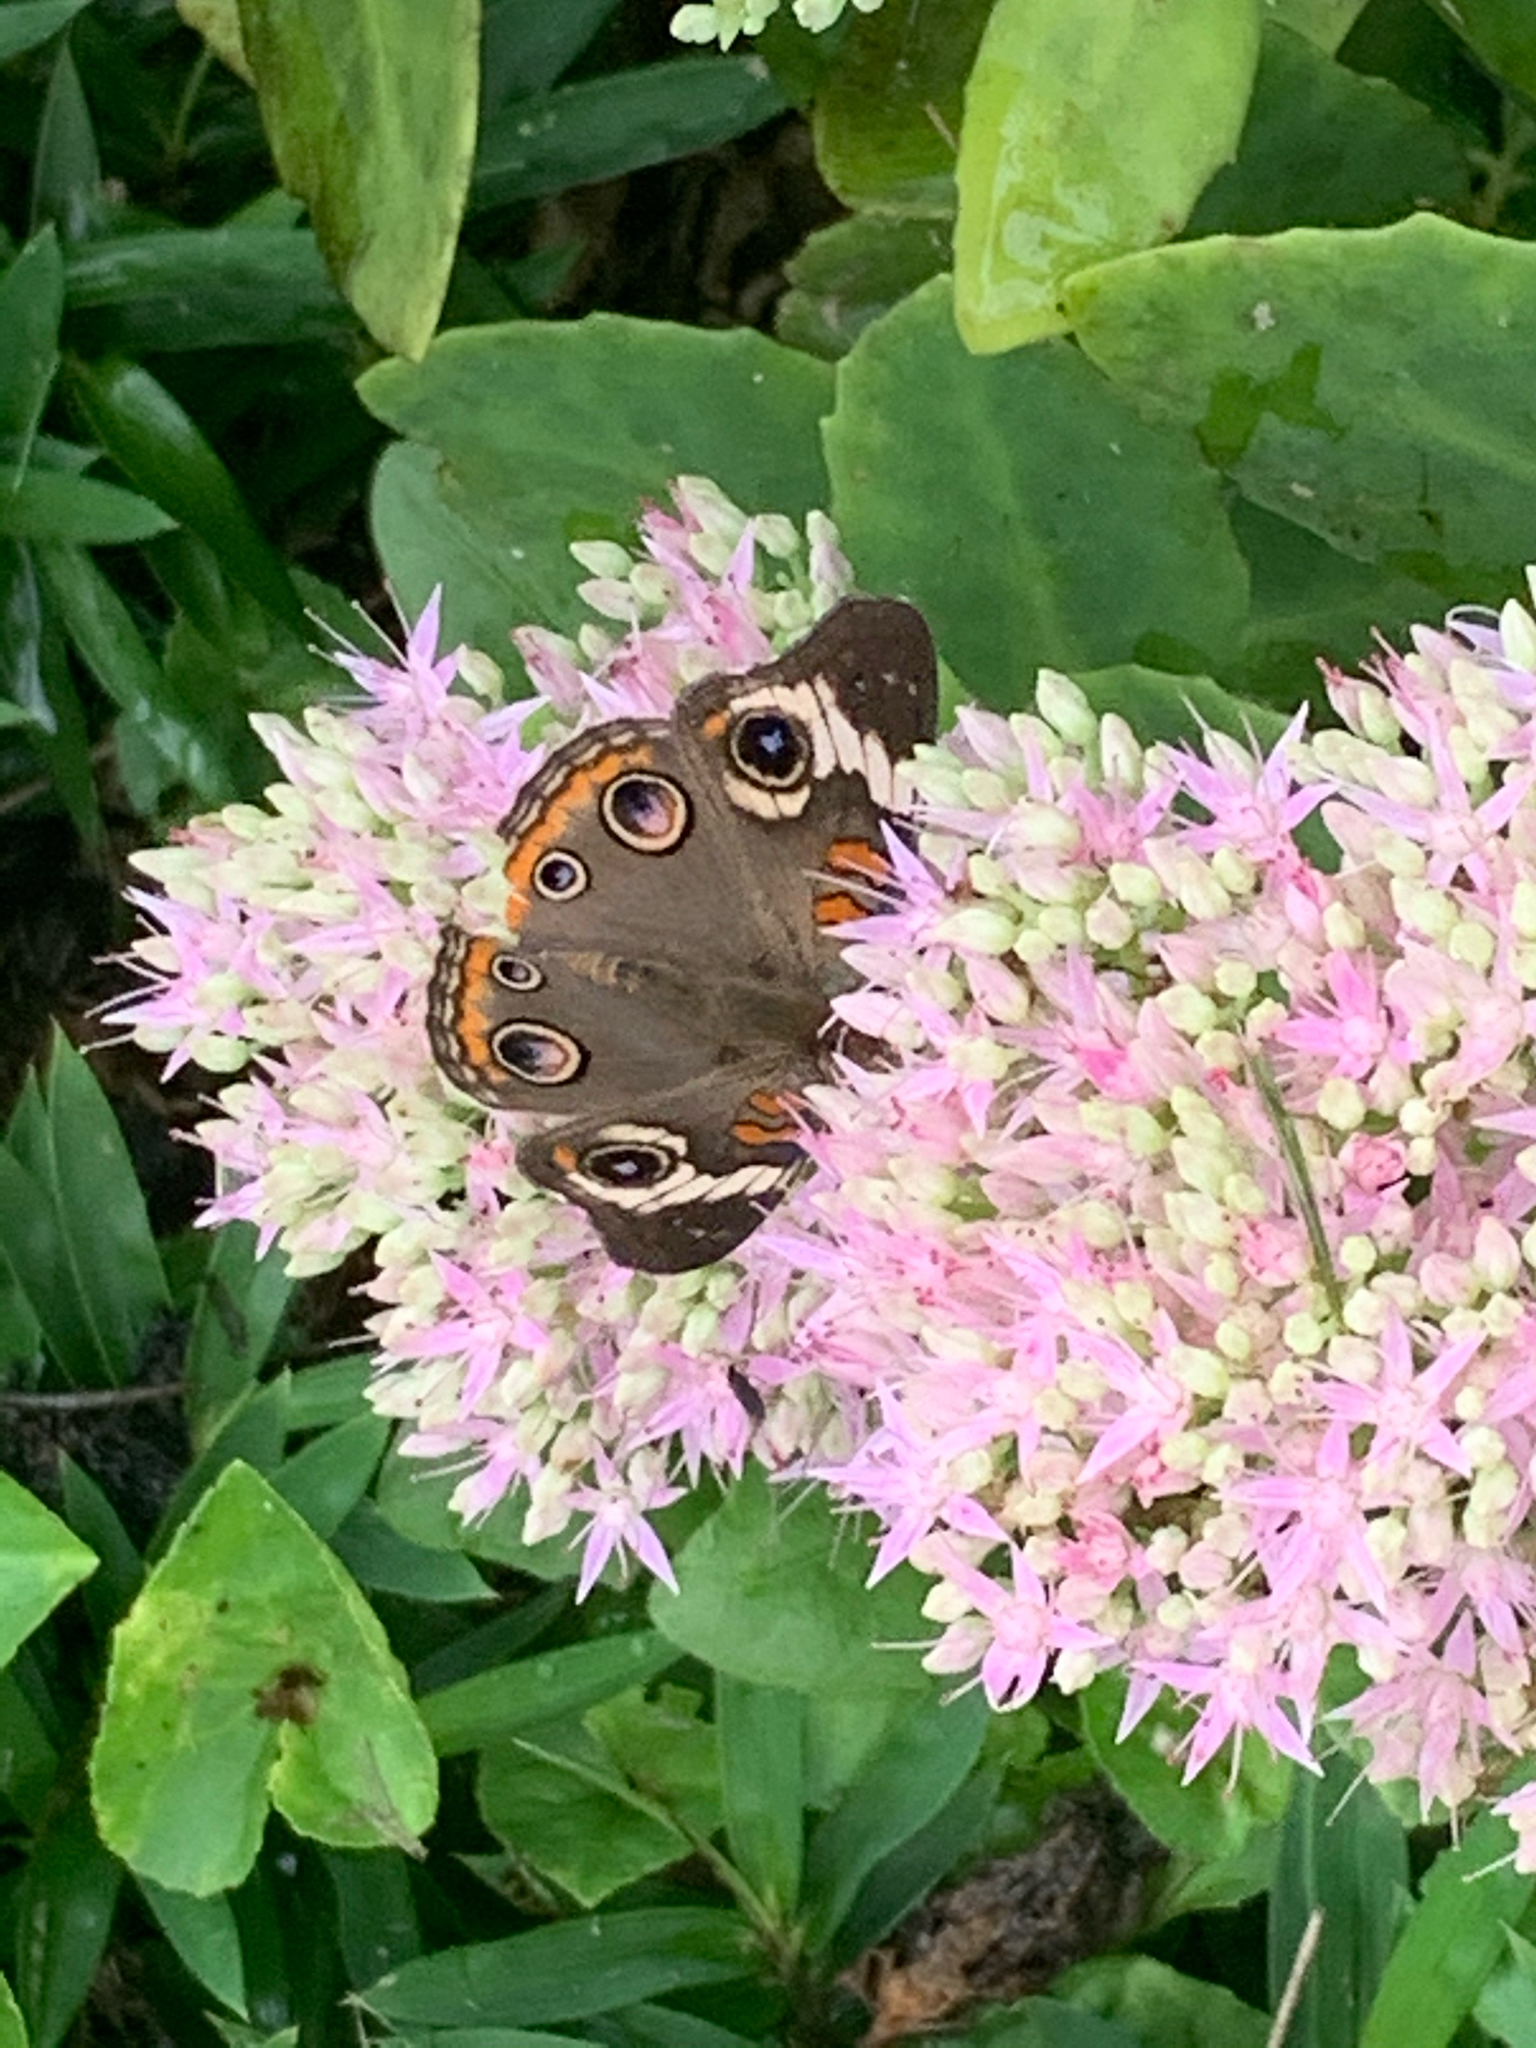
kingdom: Animalia
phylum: Arthropoda
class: Insecta
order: Lepidoptera
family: Nymphalidae
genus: Junonia
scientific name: Junonia coenia
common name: Common buckeye
